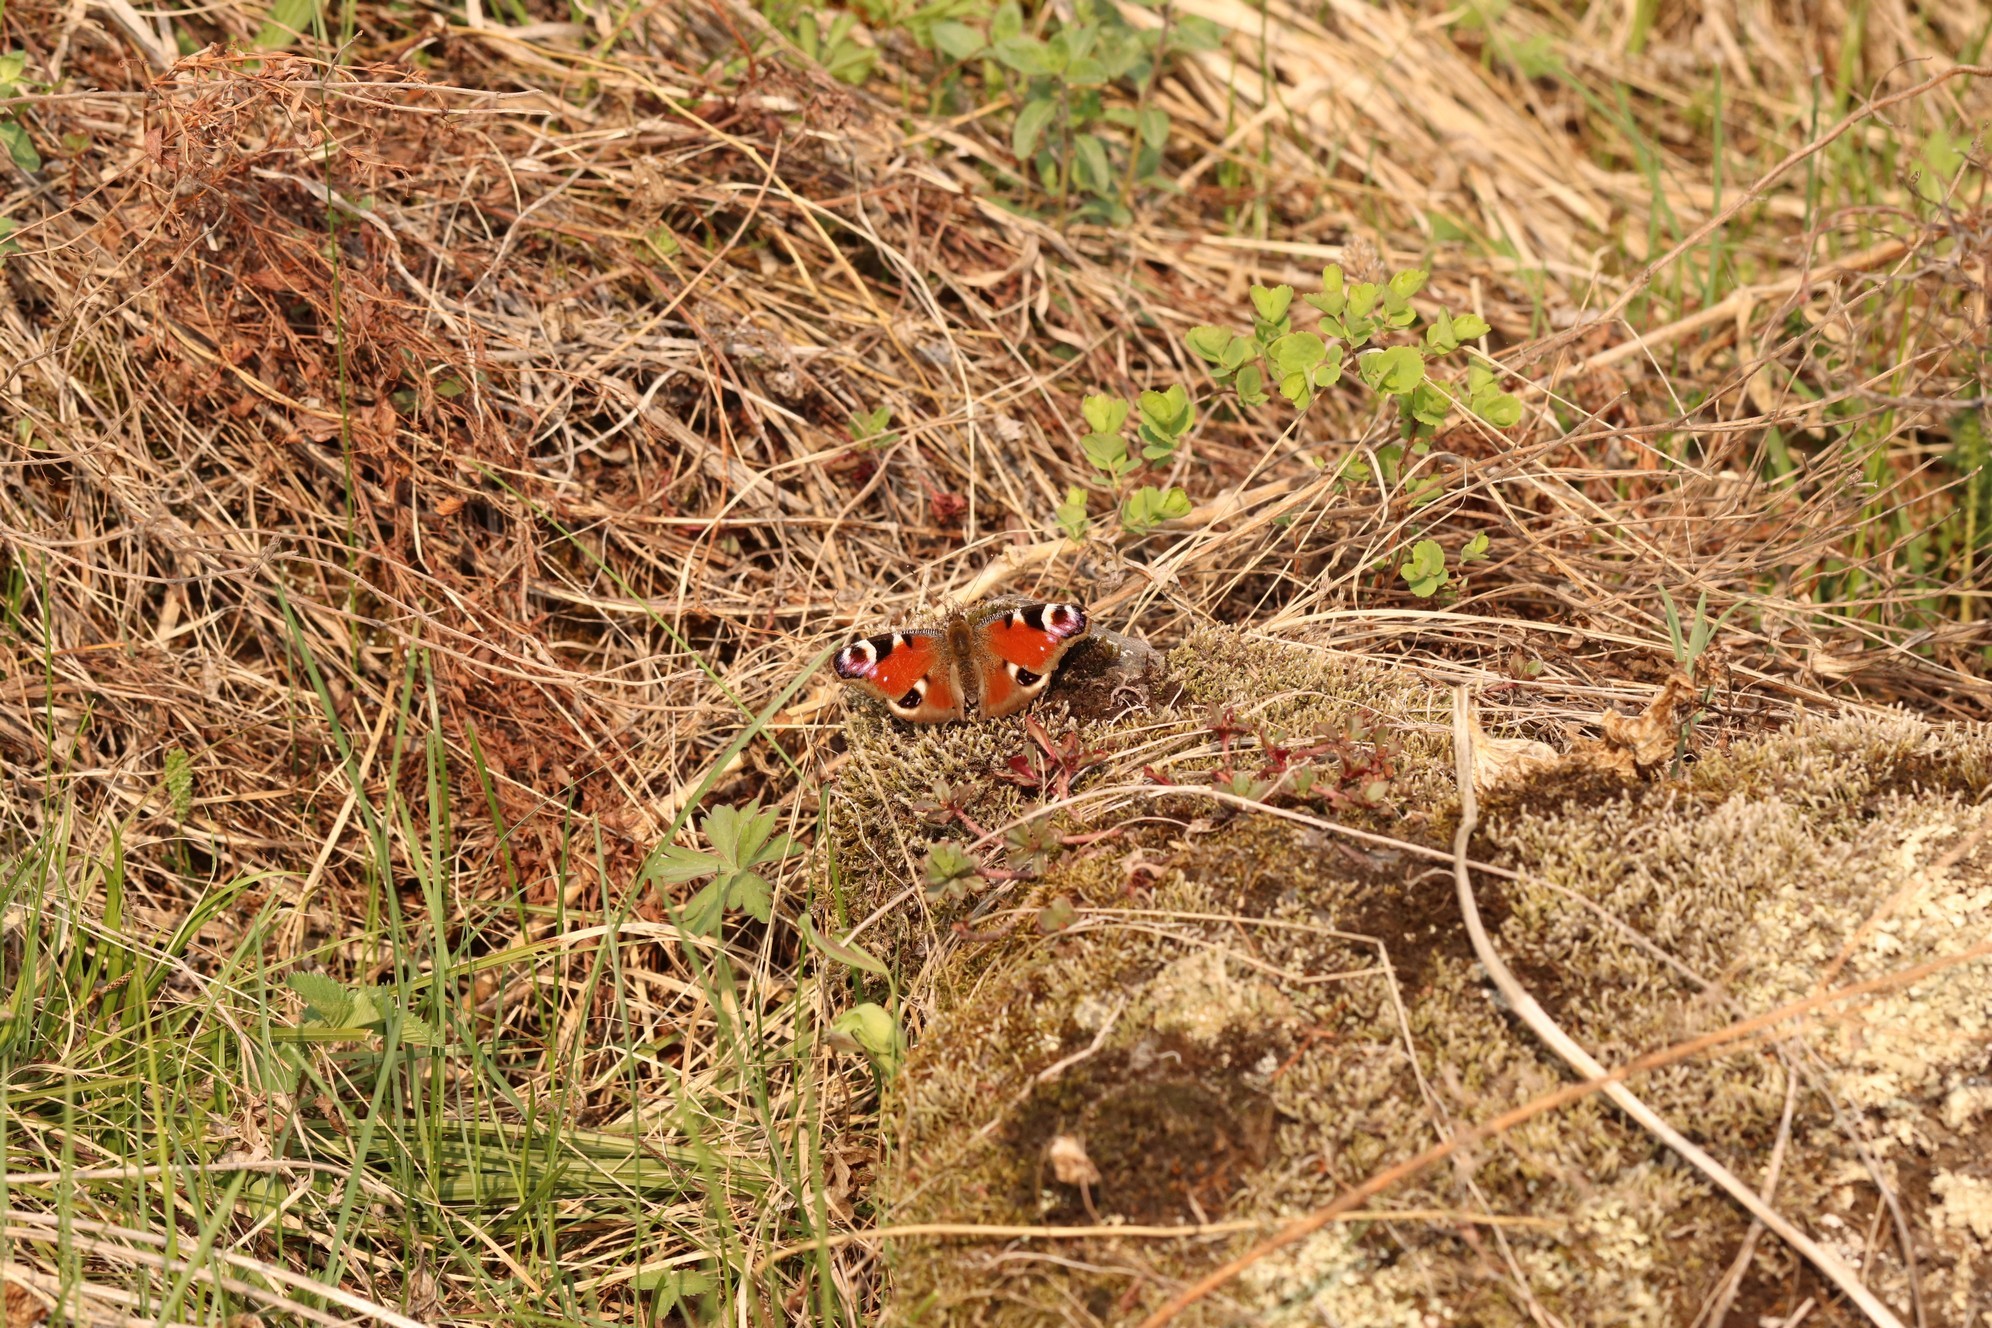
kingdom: Animalia
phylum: Arthropoda
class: Insecta
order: Lepidoptera
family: Nymphalidae
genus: Aglais
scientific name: Aglais io
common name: Peacock
